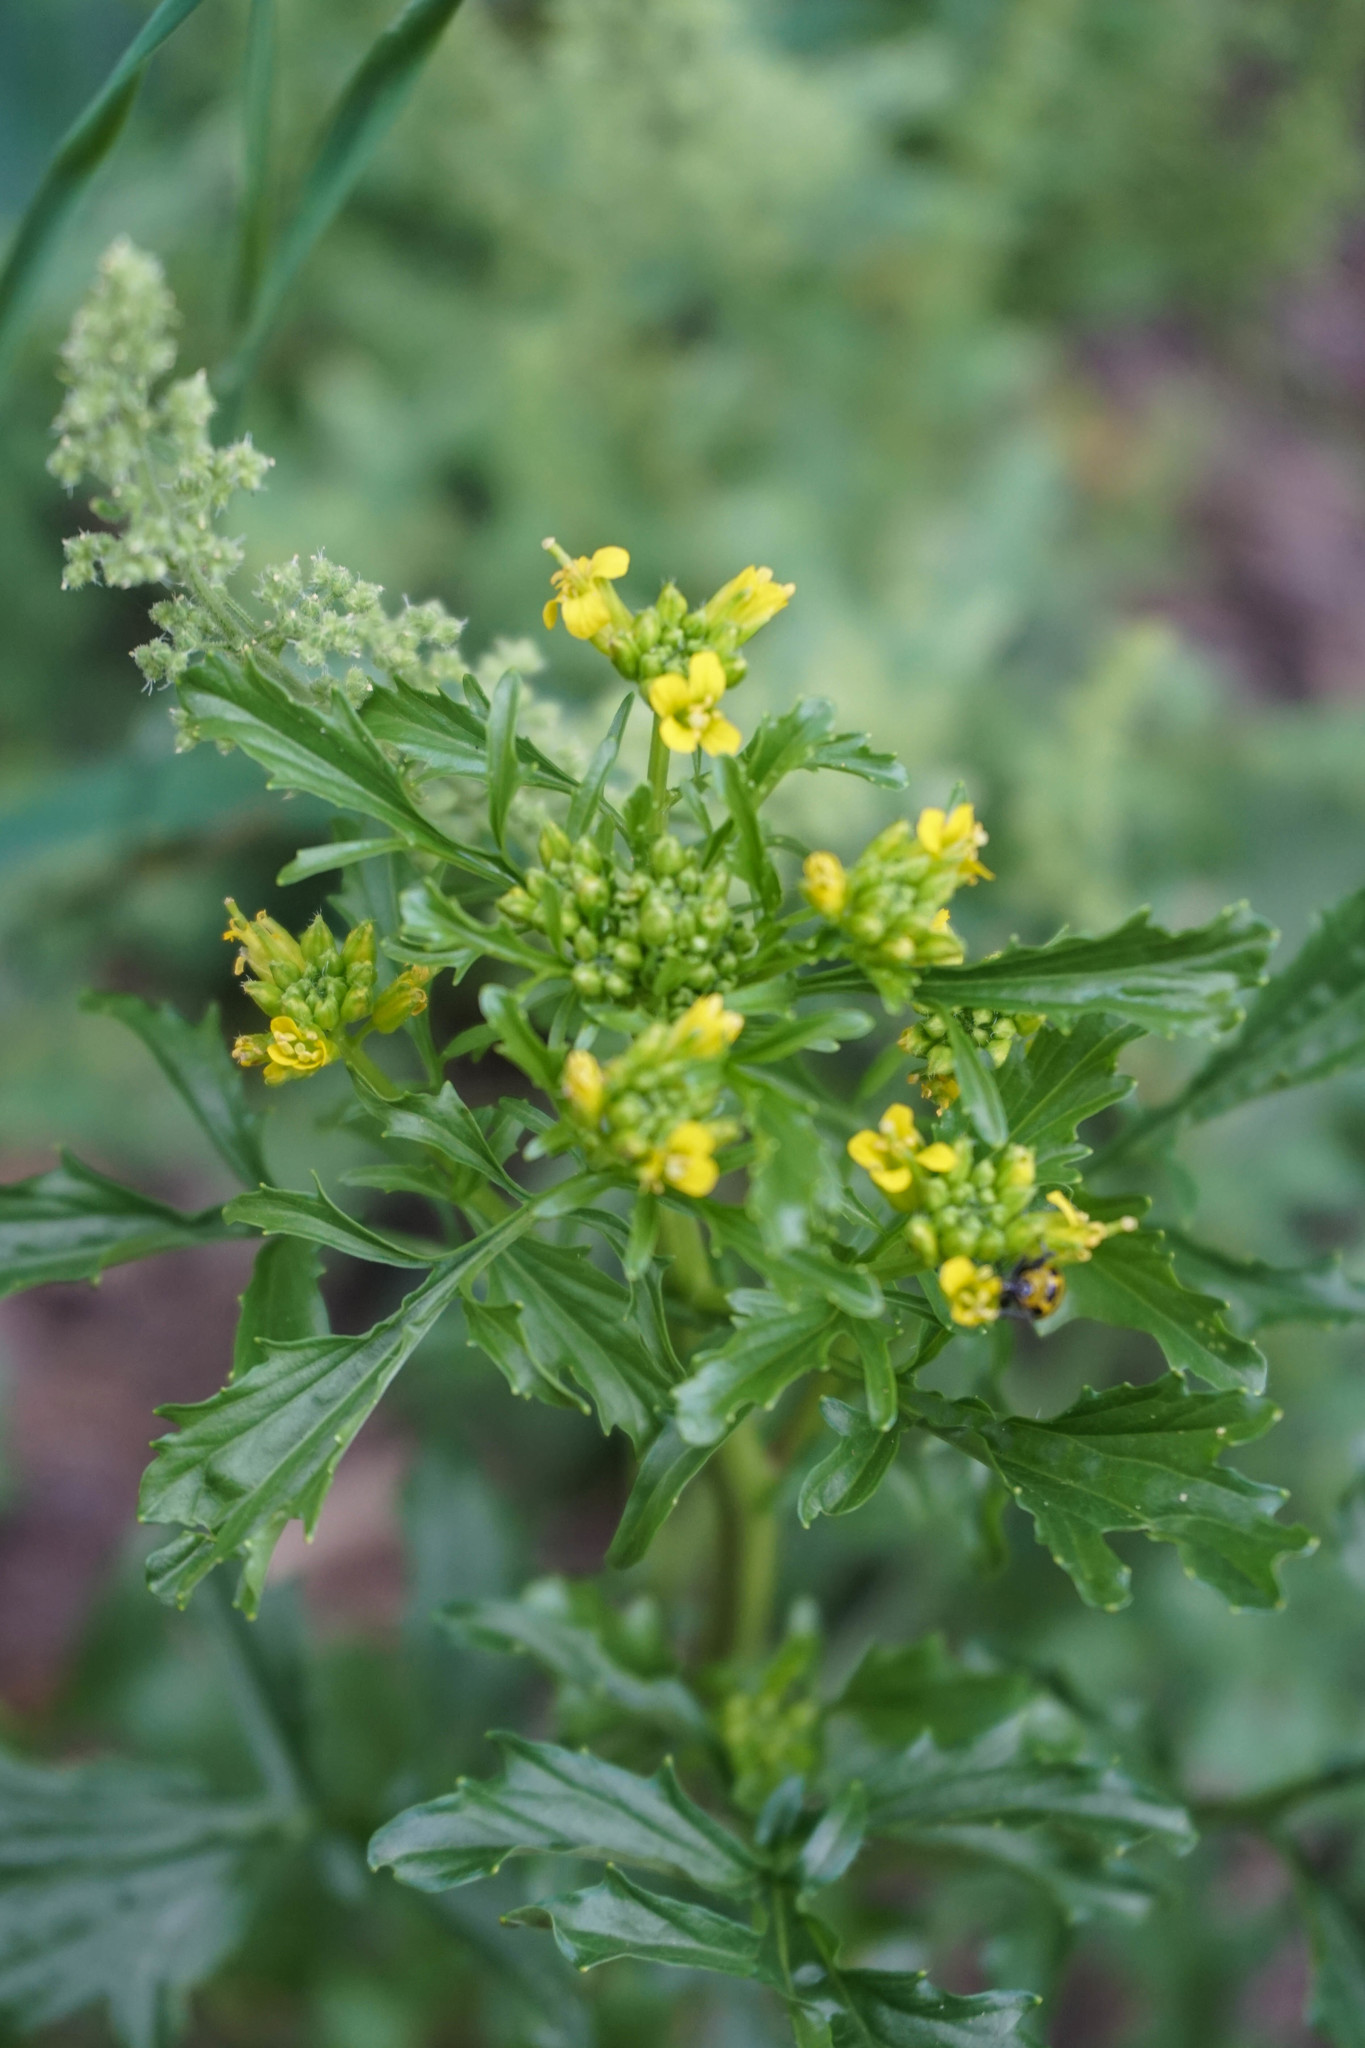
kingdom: Plantae
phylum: Tracheophyta
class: Magnoliopsida
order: Brassicales
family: Brassicaceae
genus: Barbarea
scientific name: Barbarea orthoceras
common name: American wintercress
